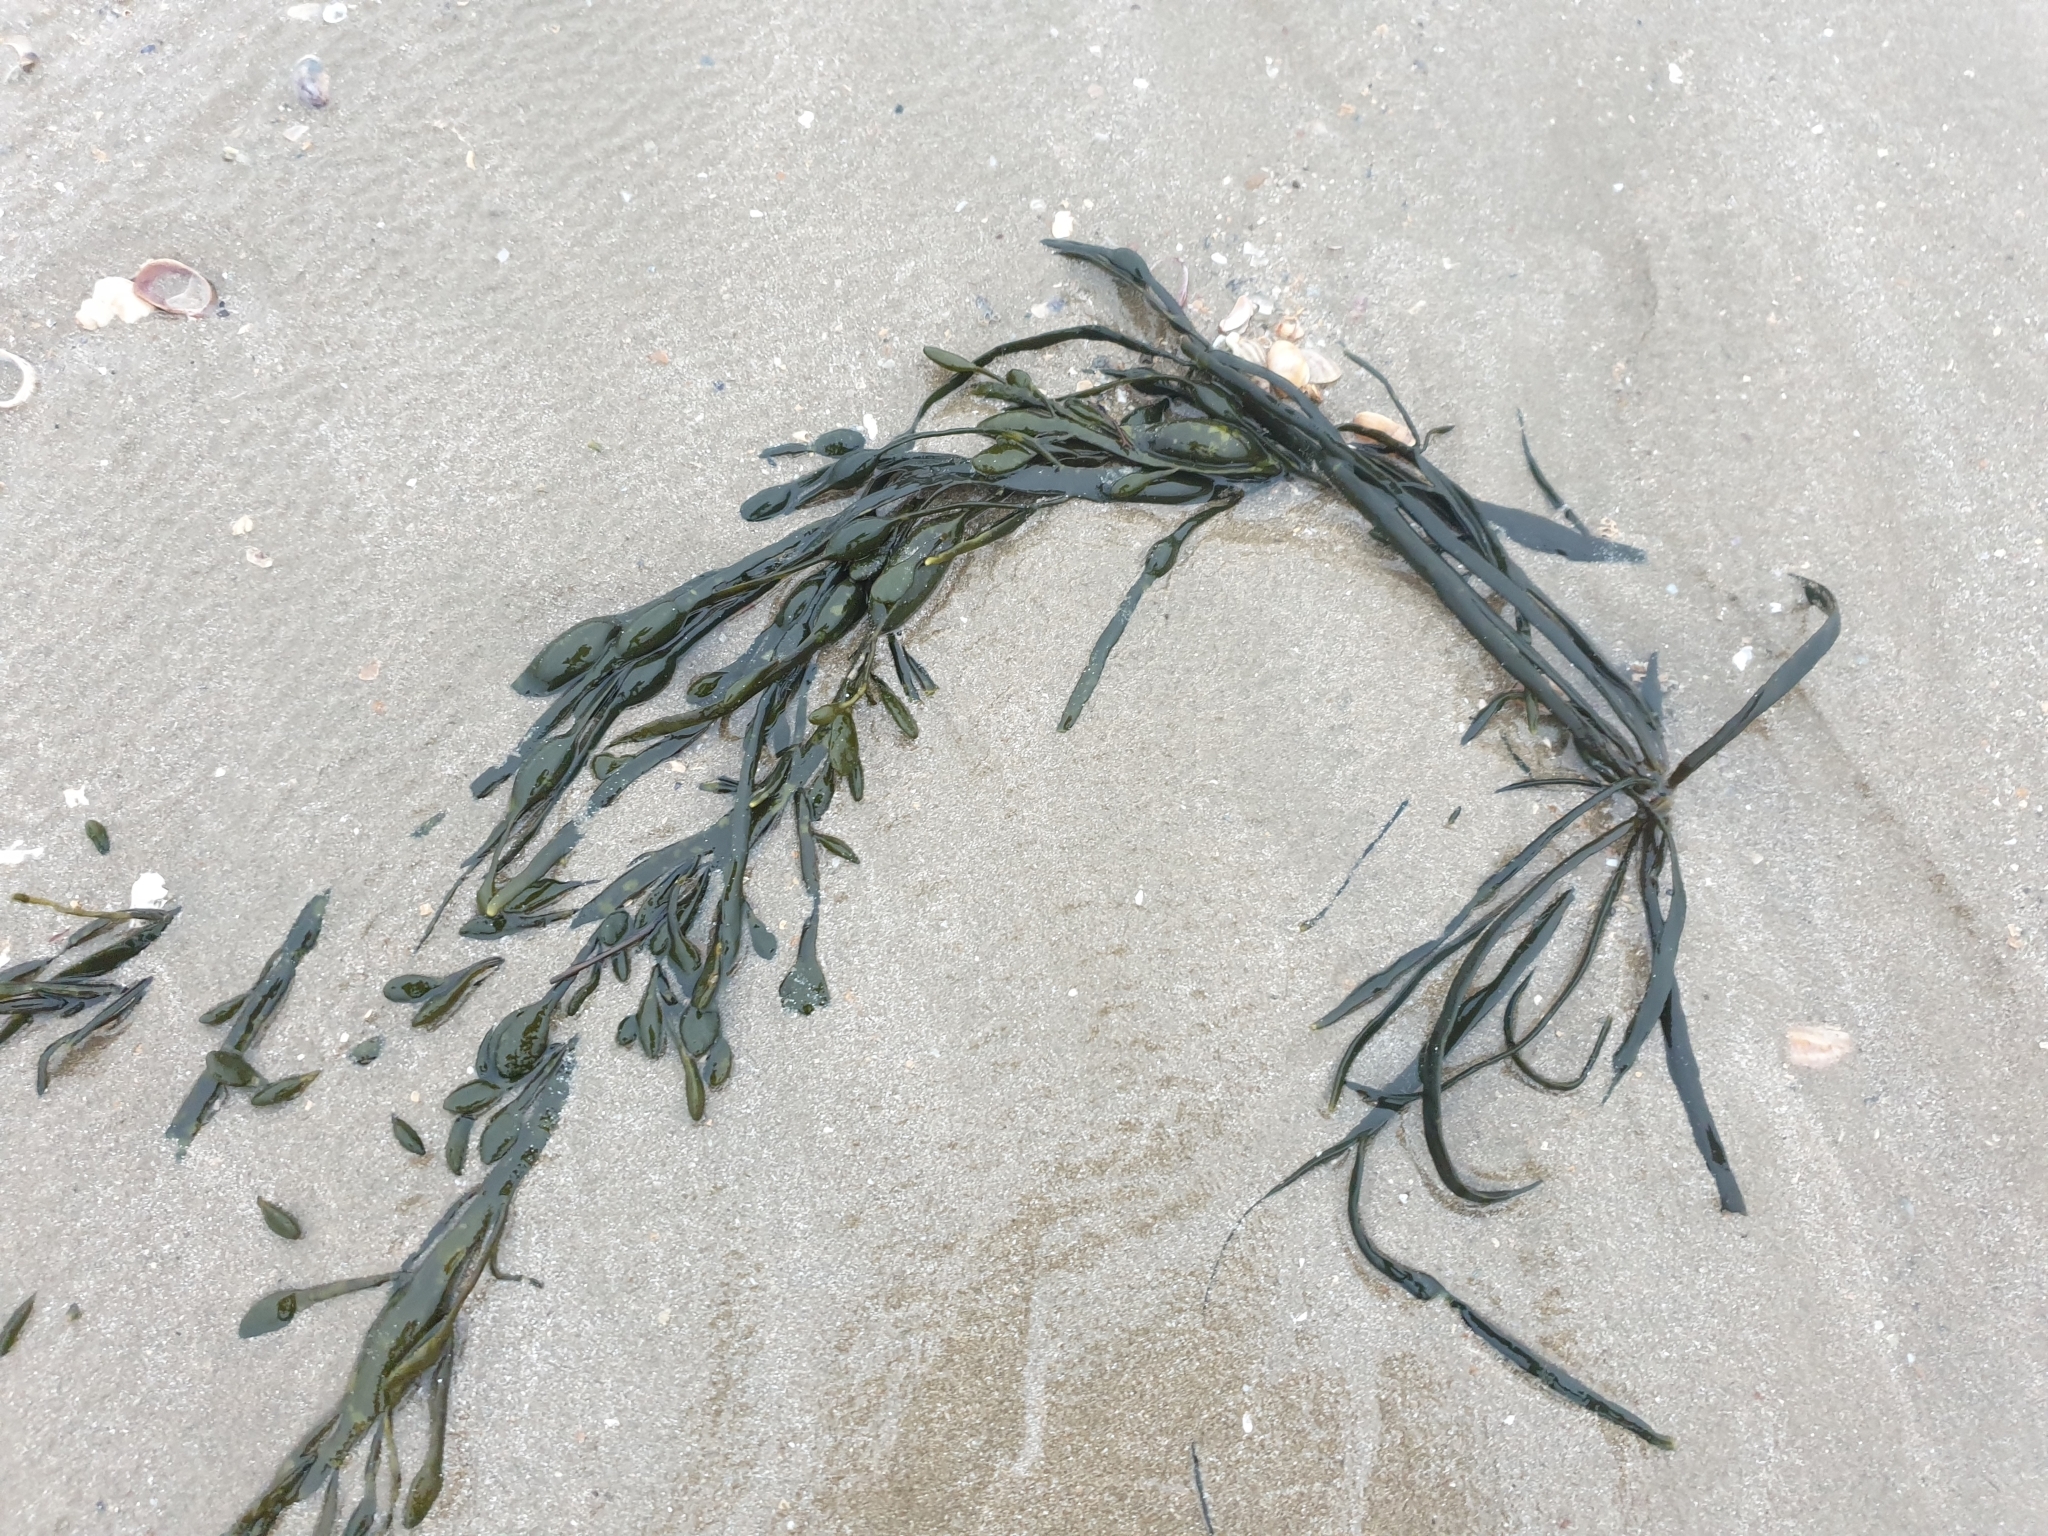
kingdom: Chromista
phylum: Ochrophyta
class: Phaeophyceae
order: Fucales
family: Fucaceae
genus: Ascophyllum
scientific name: Ascophyllum nodosum
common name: Knotted wrack
